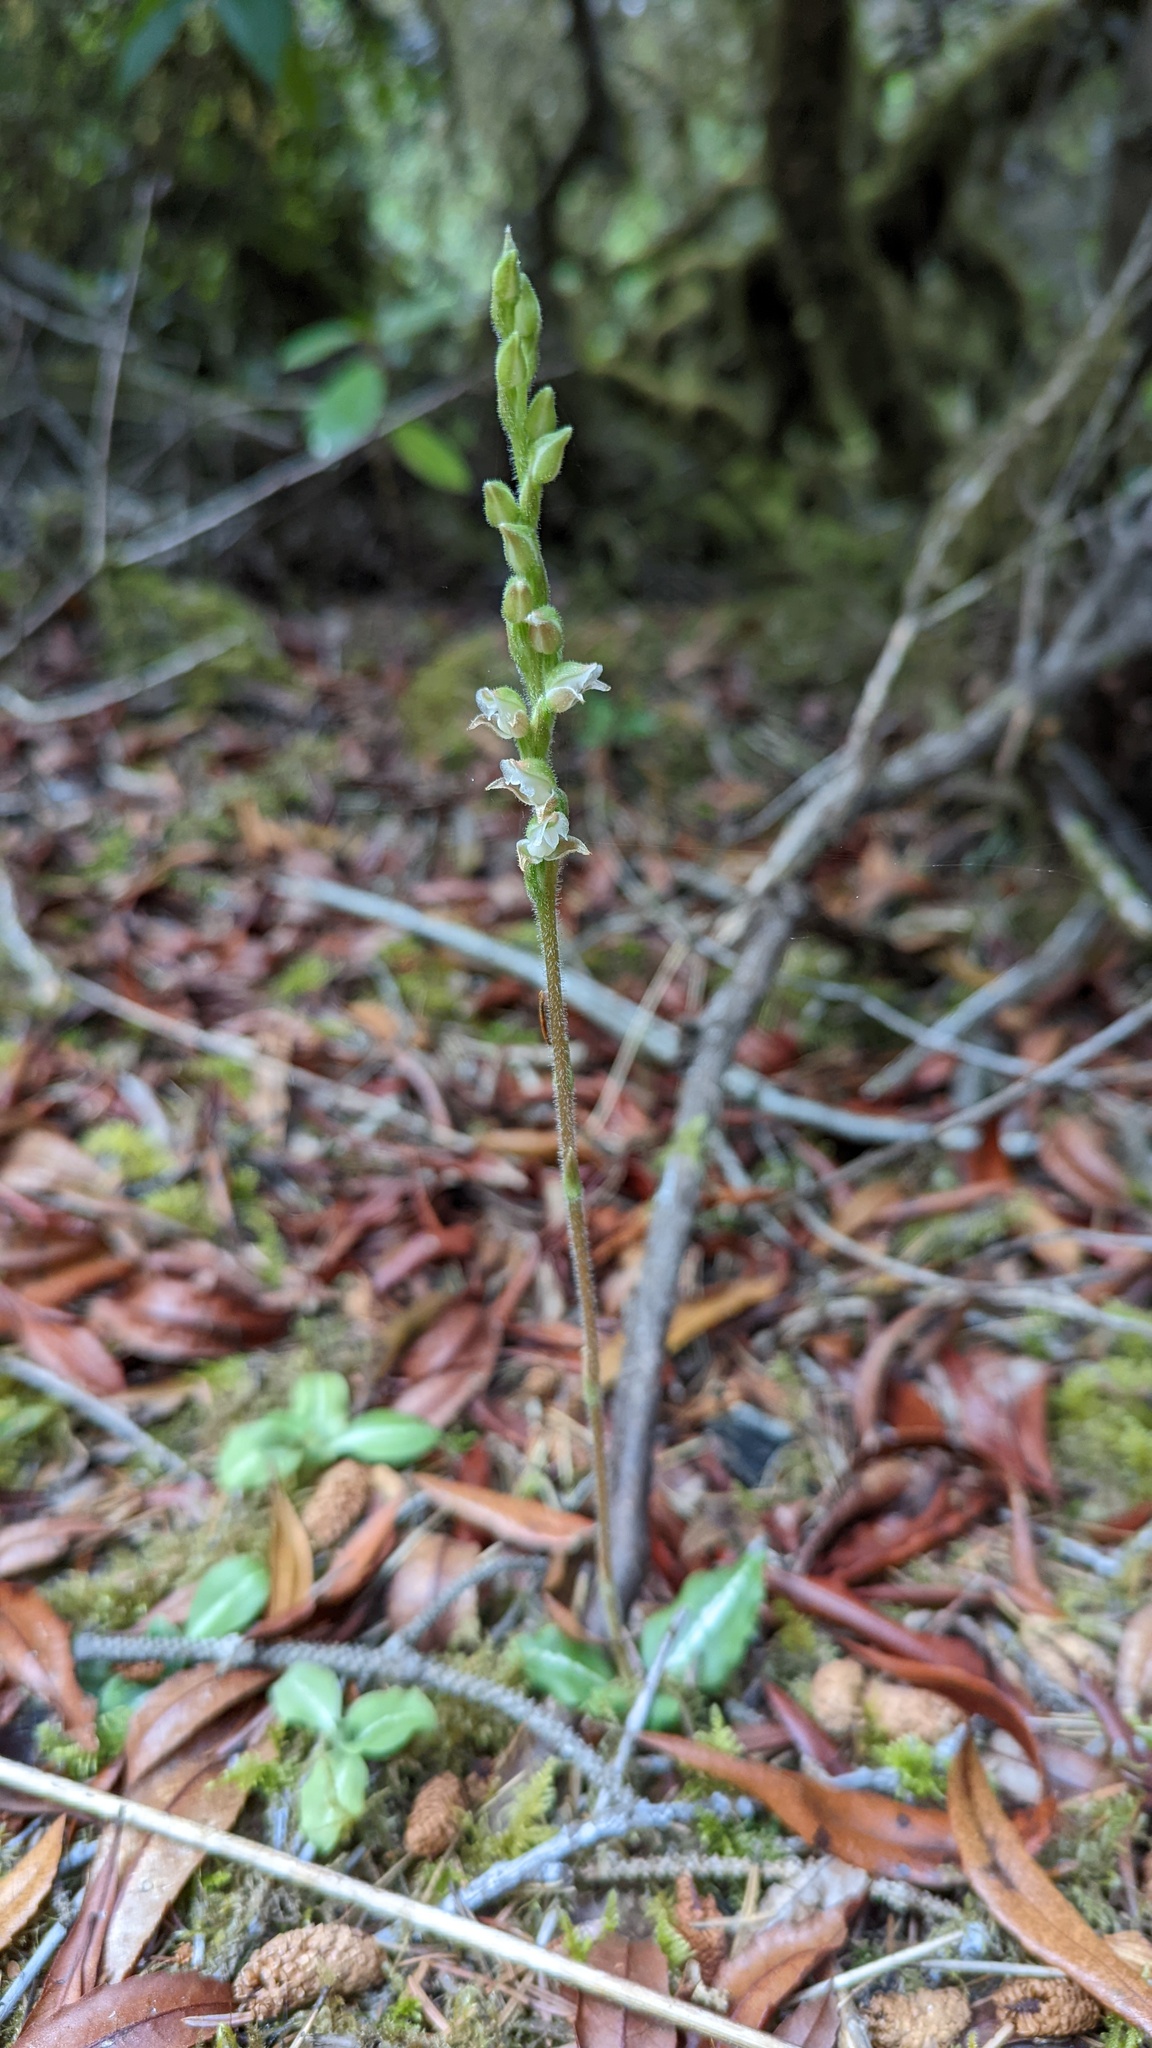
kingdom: Plantae
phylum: Tracheophyta
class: Liliopsida
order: Asparagales
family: Orchidaceae
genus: Goodyera
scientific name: Goodyera oblongifolia
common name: Giant rattlesnake-plantain
